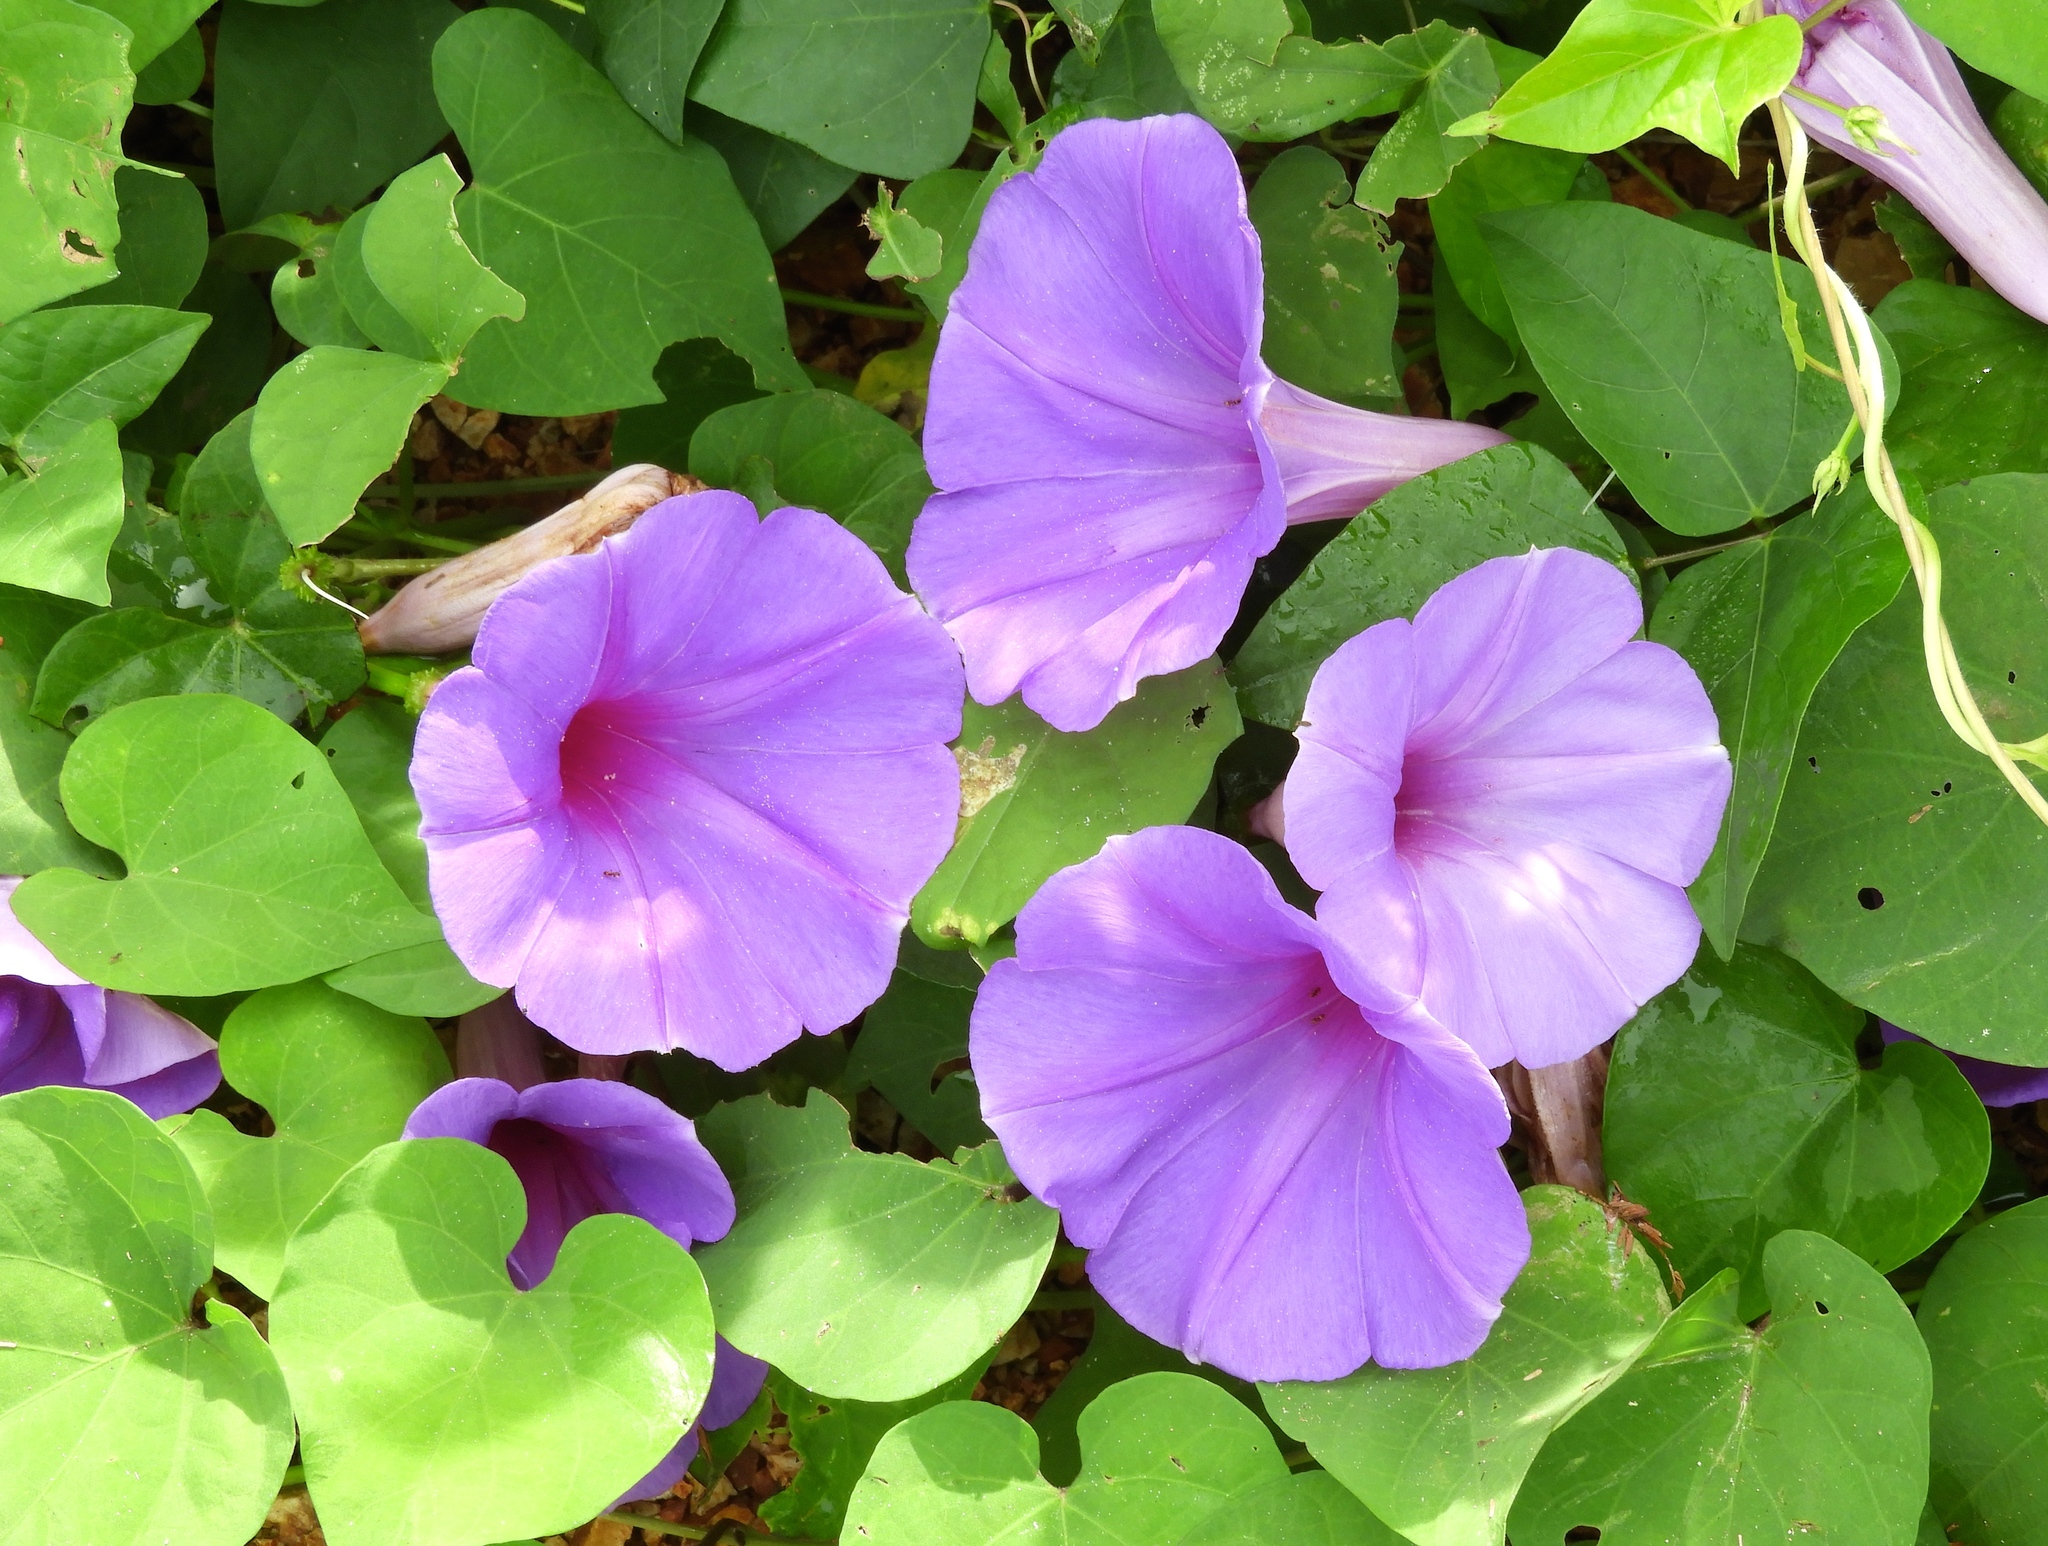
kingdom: Plantae
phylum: Tracheophyta
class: Magnoliopsida
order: Solanales
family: Convolvulaceae
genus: Ipomoea
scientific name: Ipomoea pedicellaris
